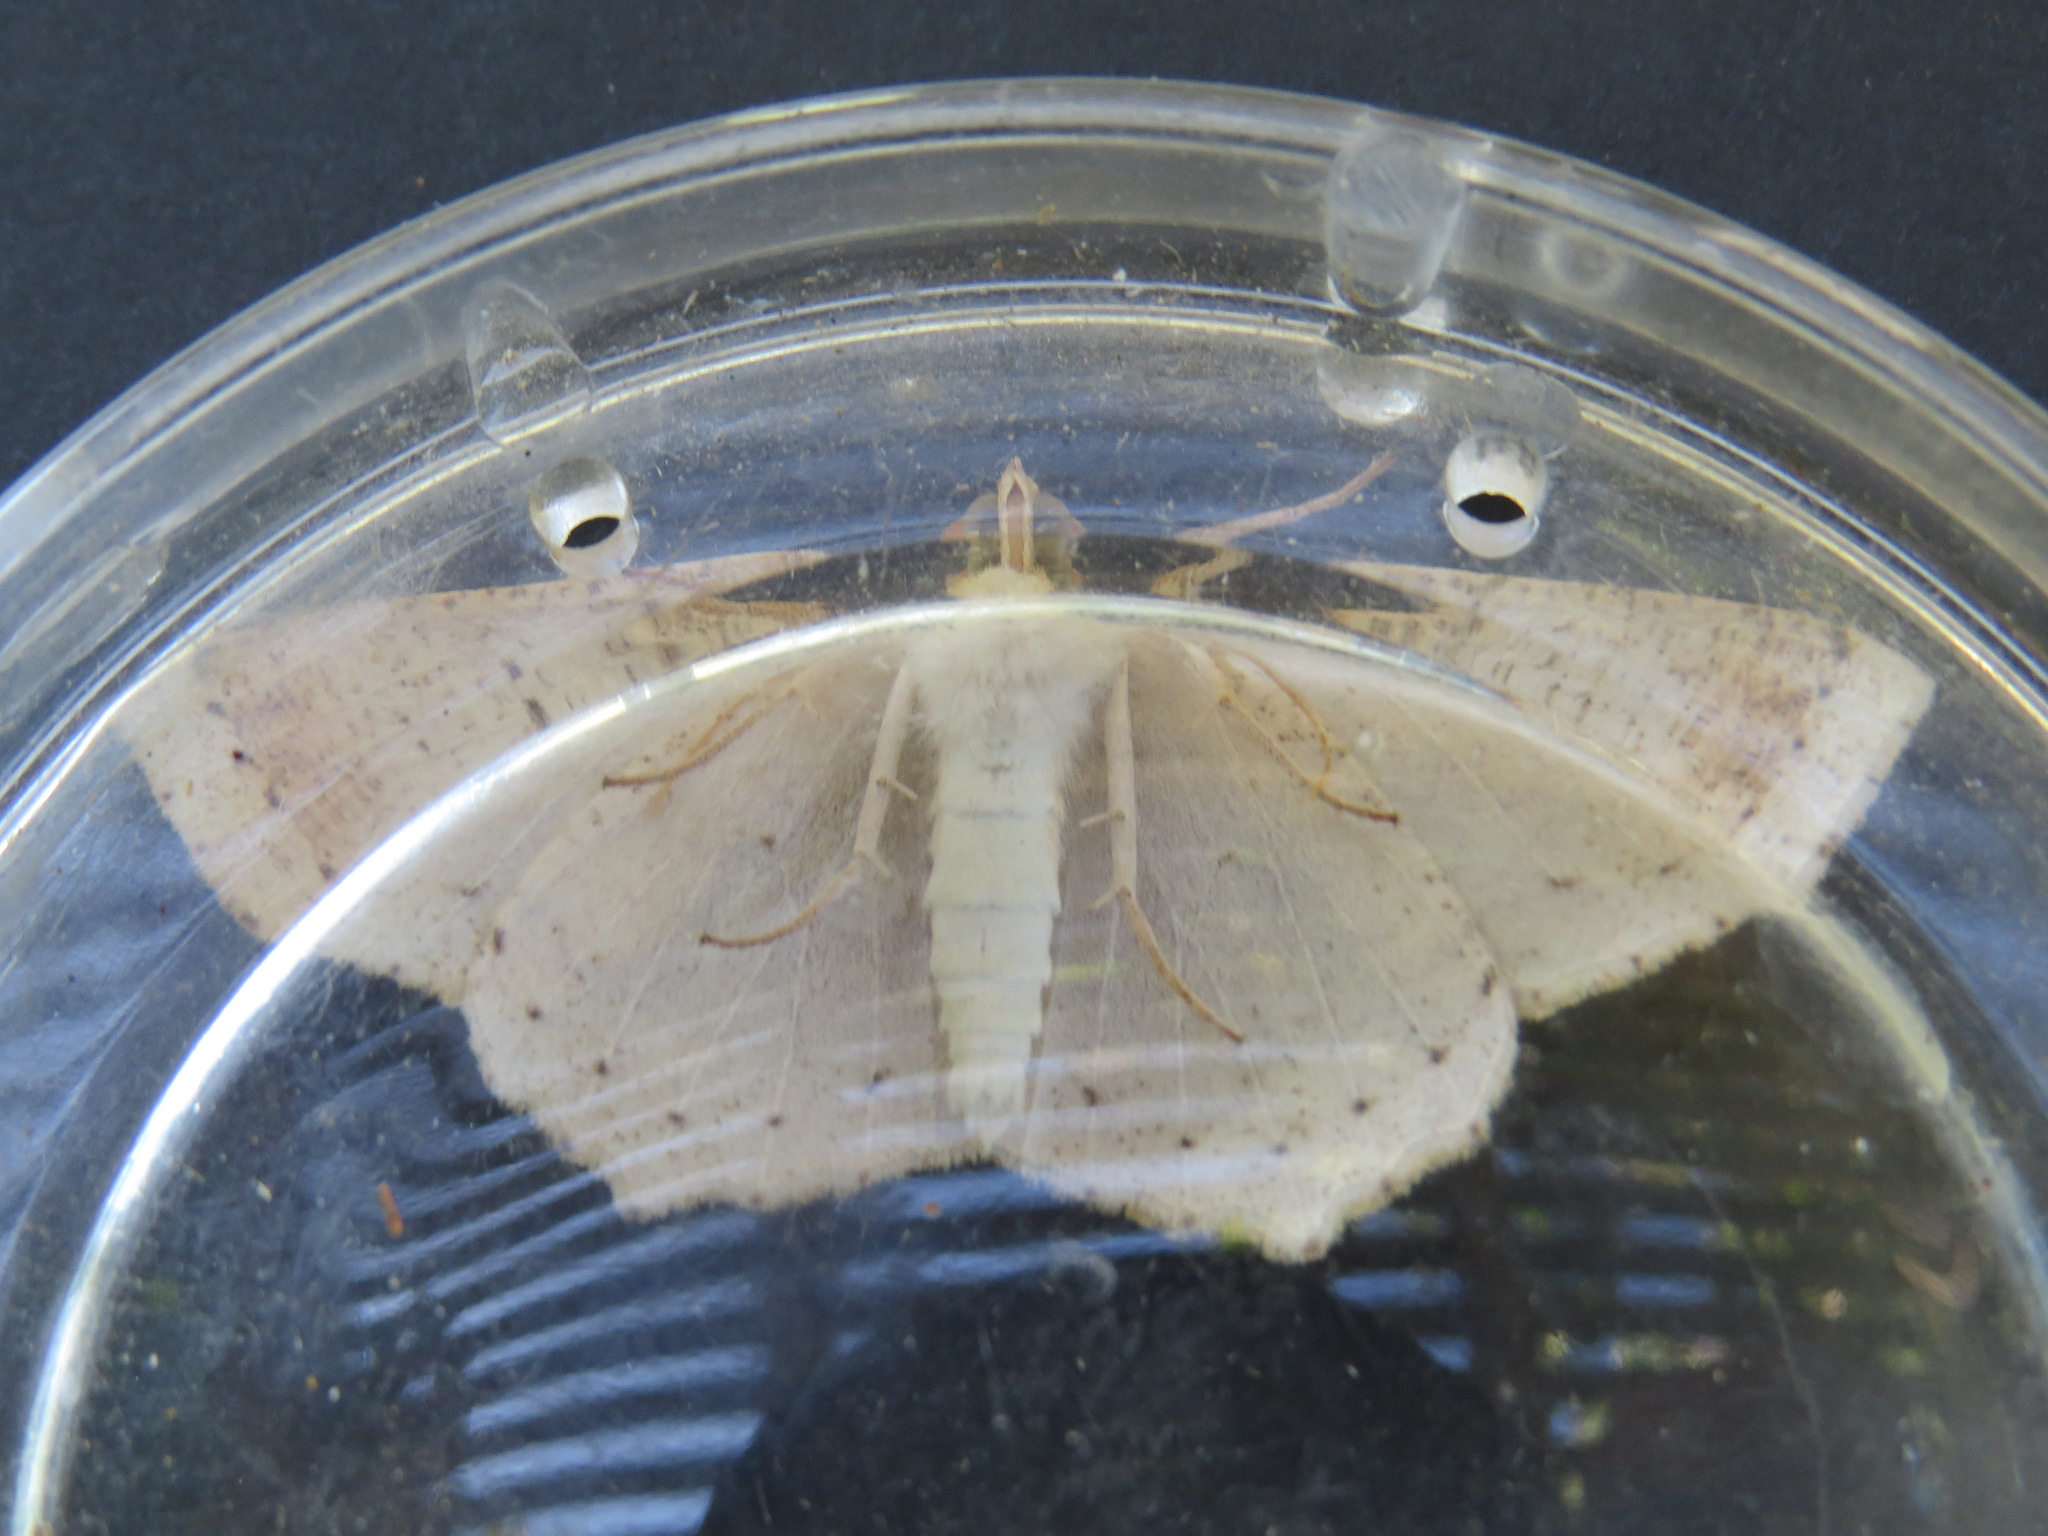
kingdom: Animalia
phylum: Arthropoda
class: Insecta
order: Lepidoptera
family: Geometridae
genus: Sabulodes
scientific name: Sabulodes aegrotata
